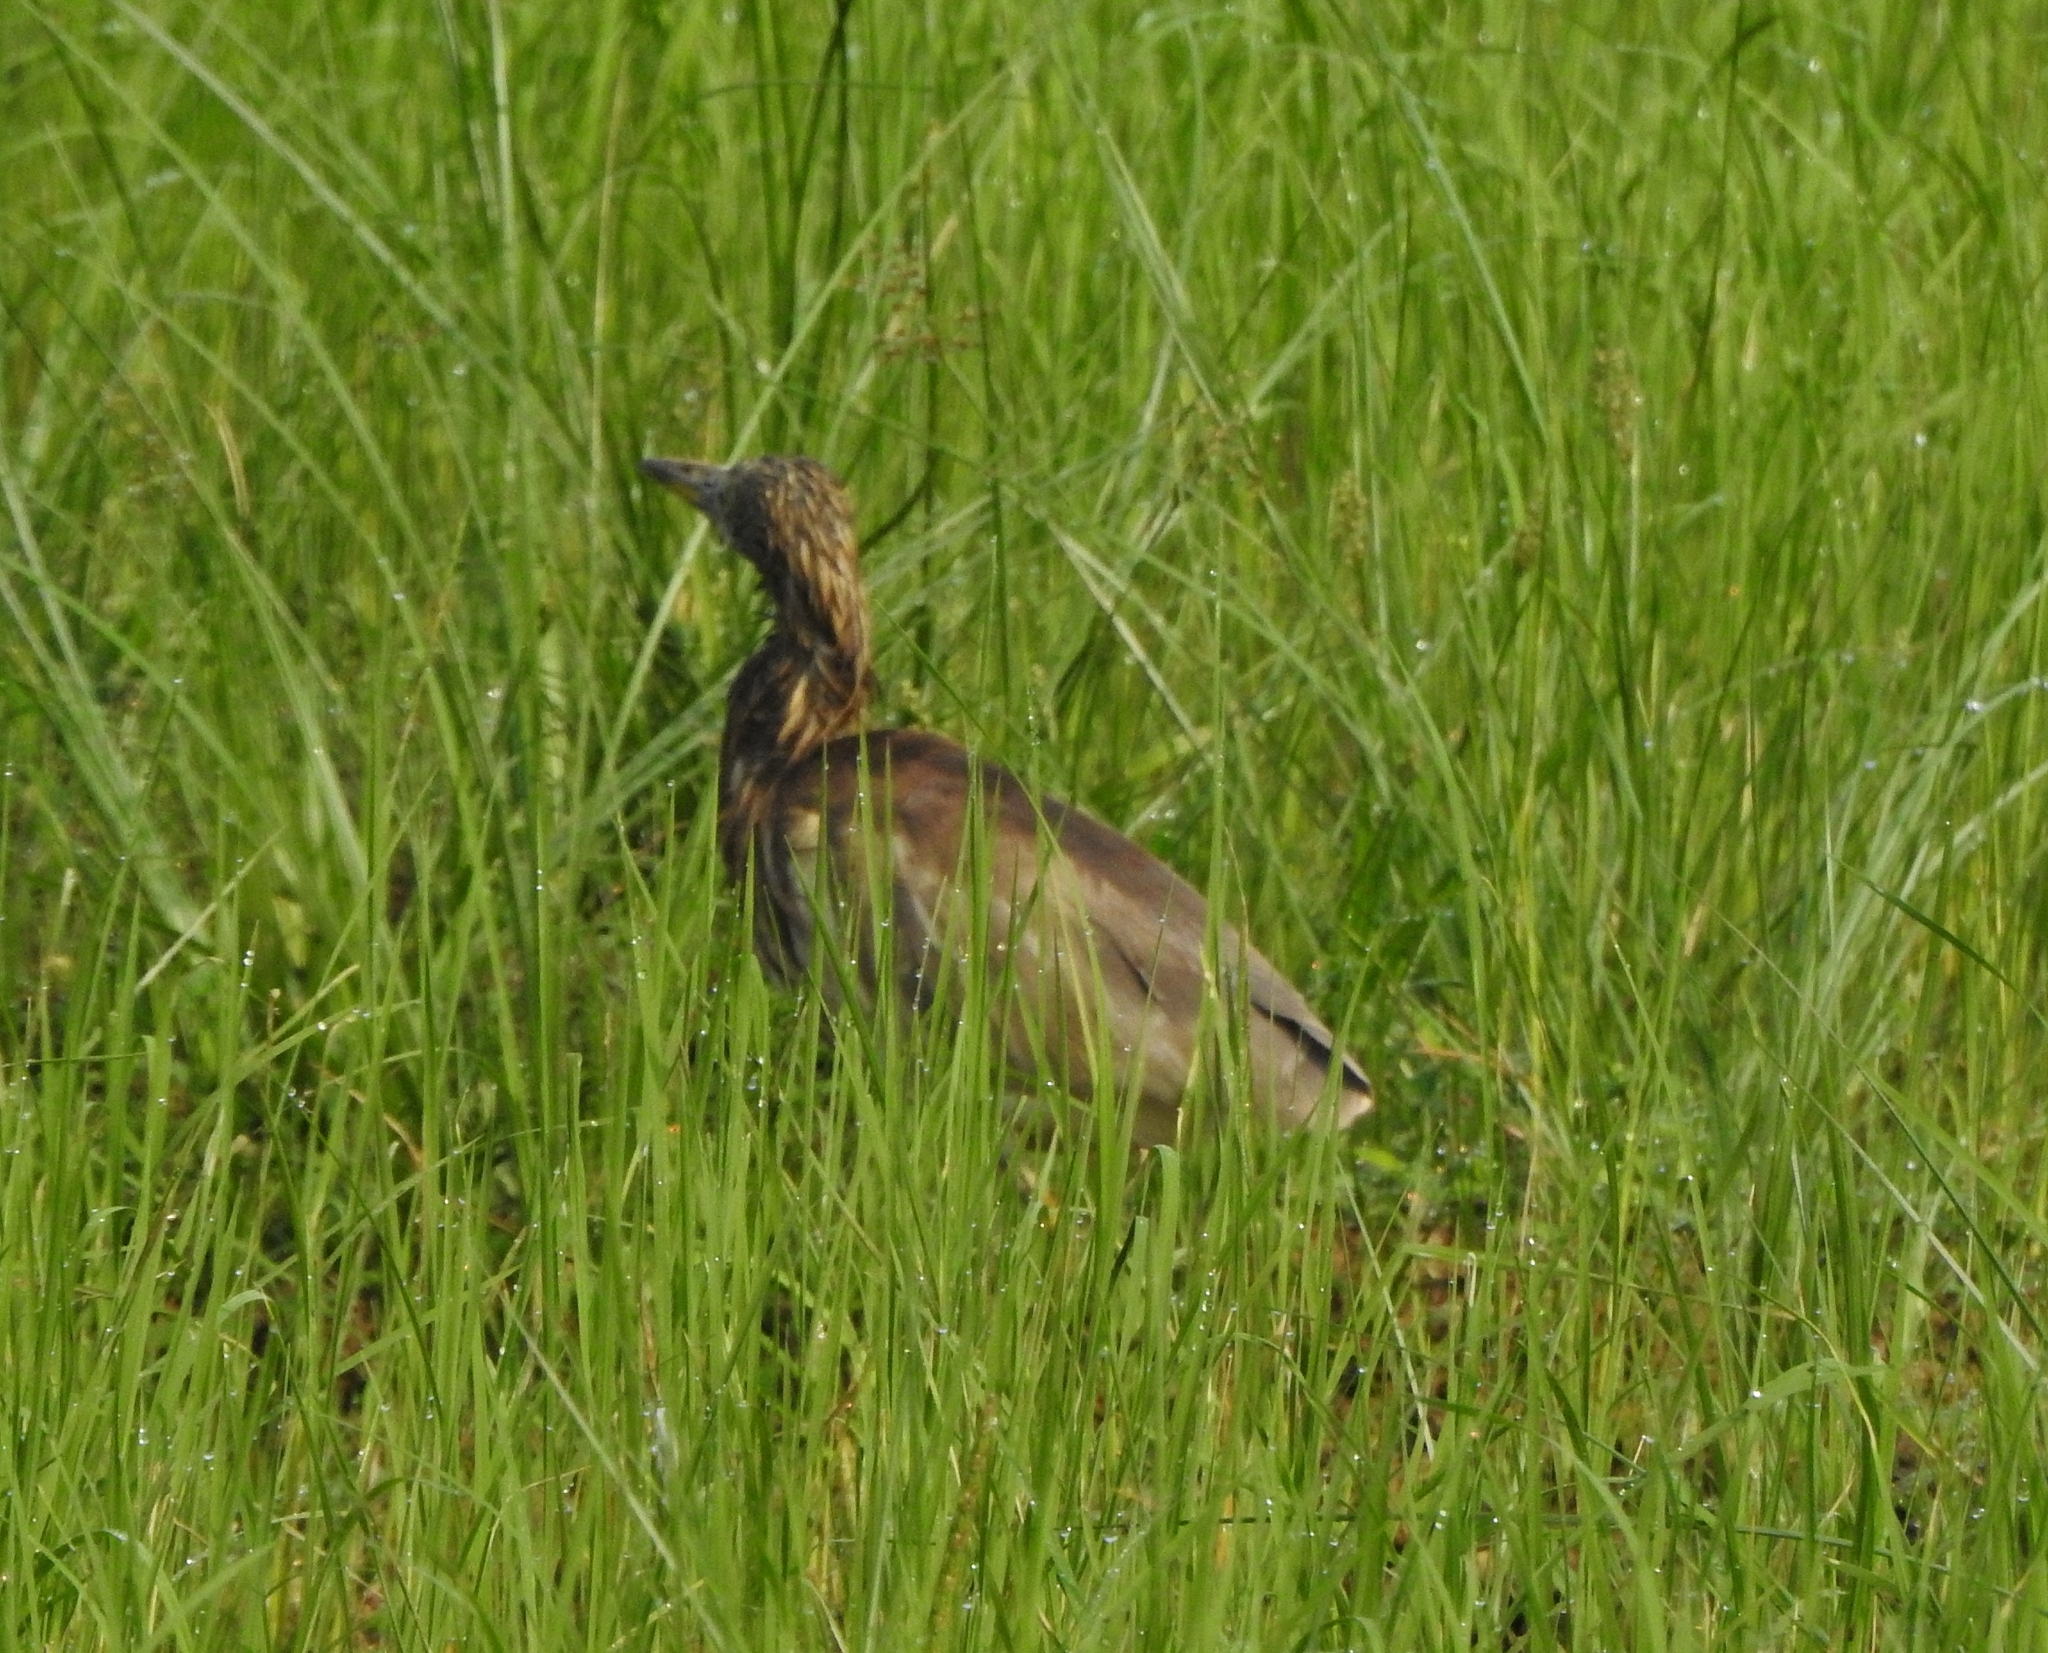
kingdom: Animalia
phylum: Chordata
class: Aves
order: Pelecaniformes
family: Ardeidae
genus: Ardeola
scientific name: Ardeola grayii
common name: Indian pond heron
